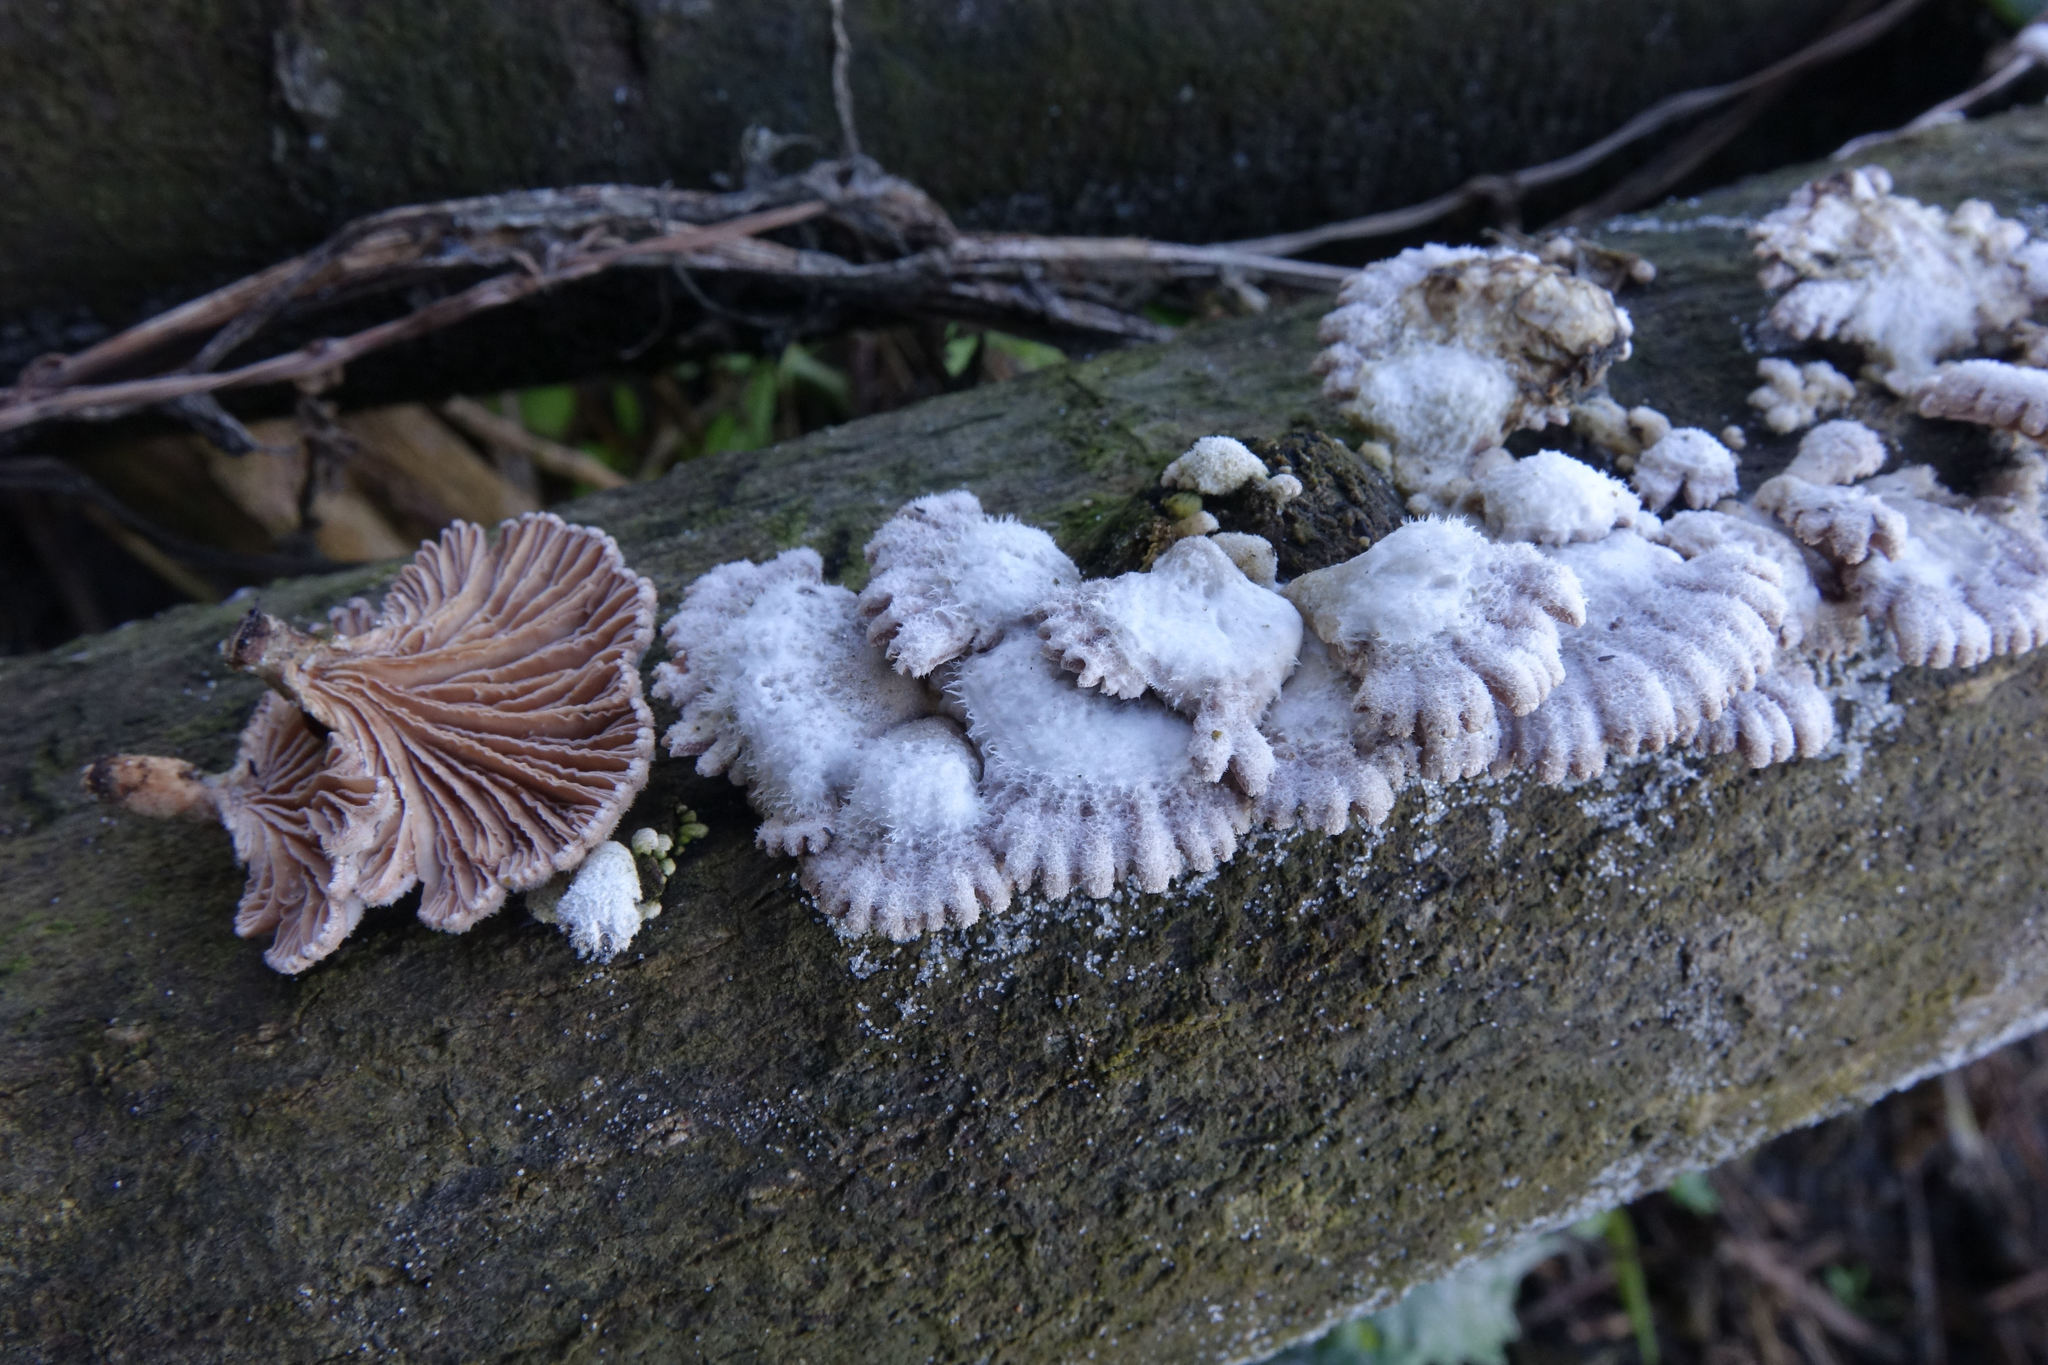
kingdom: Fungi
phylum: Basidiomycota
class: Agaricomycetes
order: Agaricales
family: Schizophyllaceae
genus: Schizophyllum
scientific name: Schizophyllum commune
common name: Common porecrust
